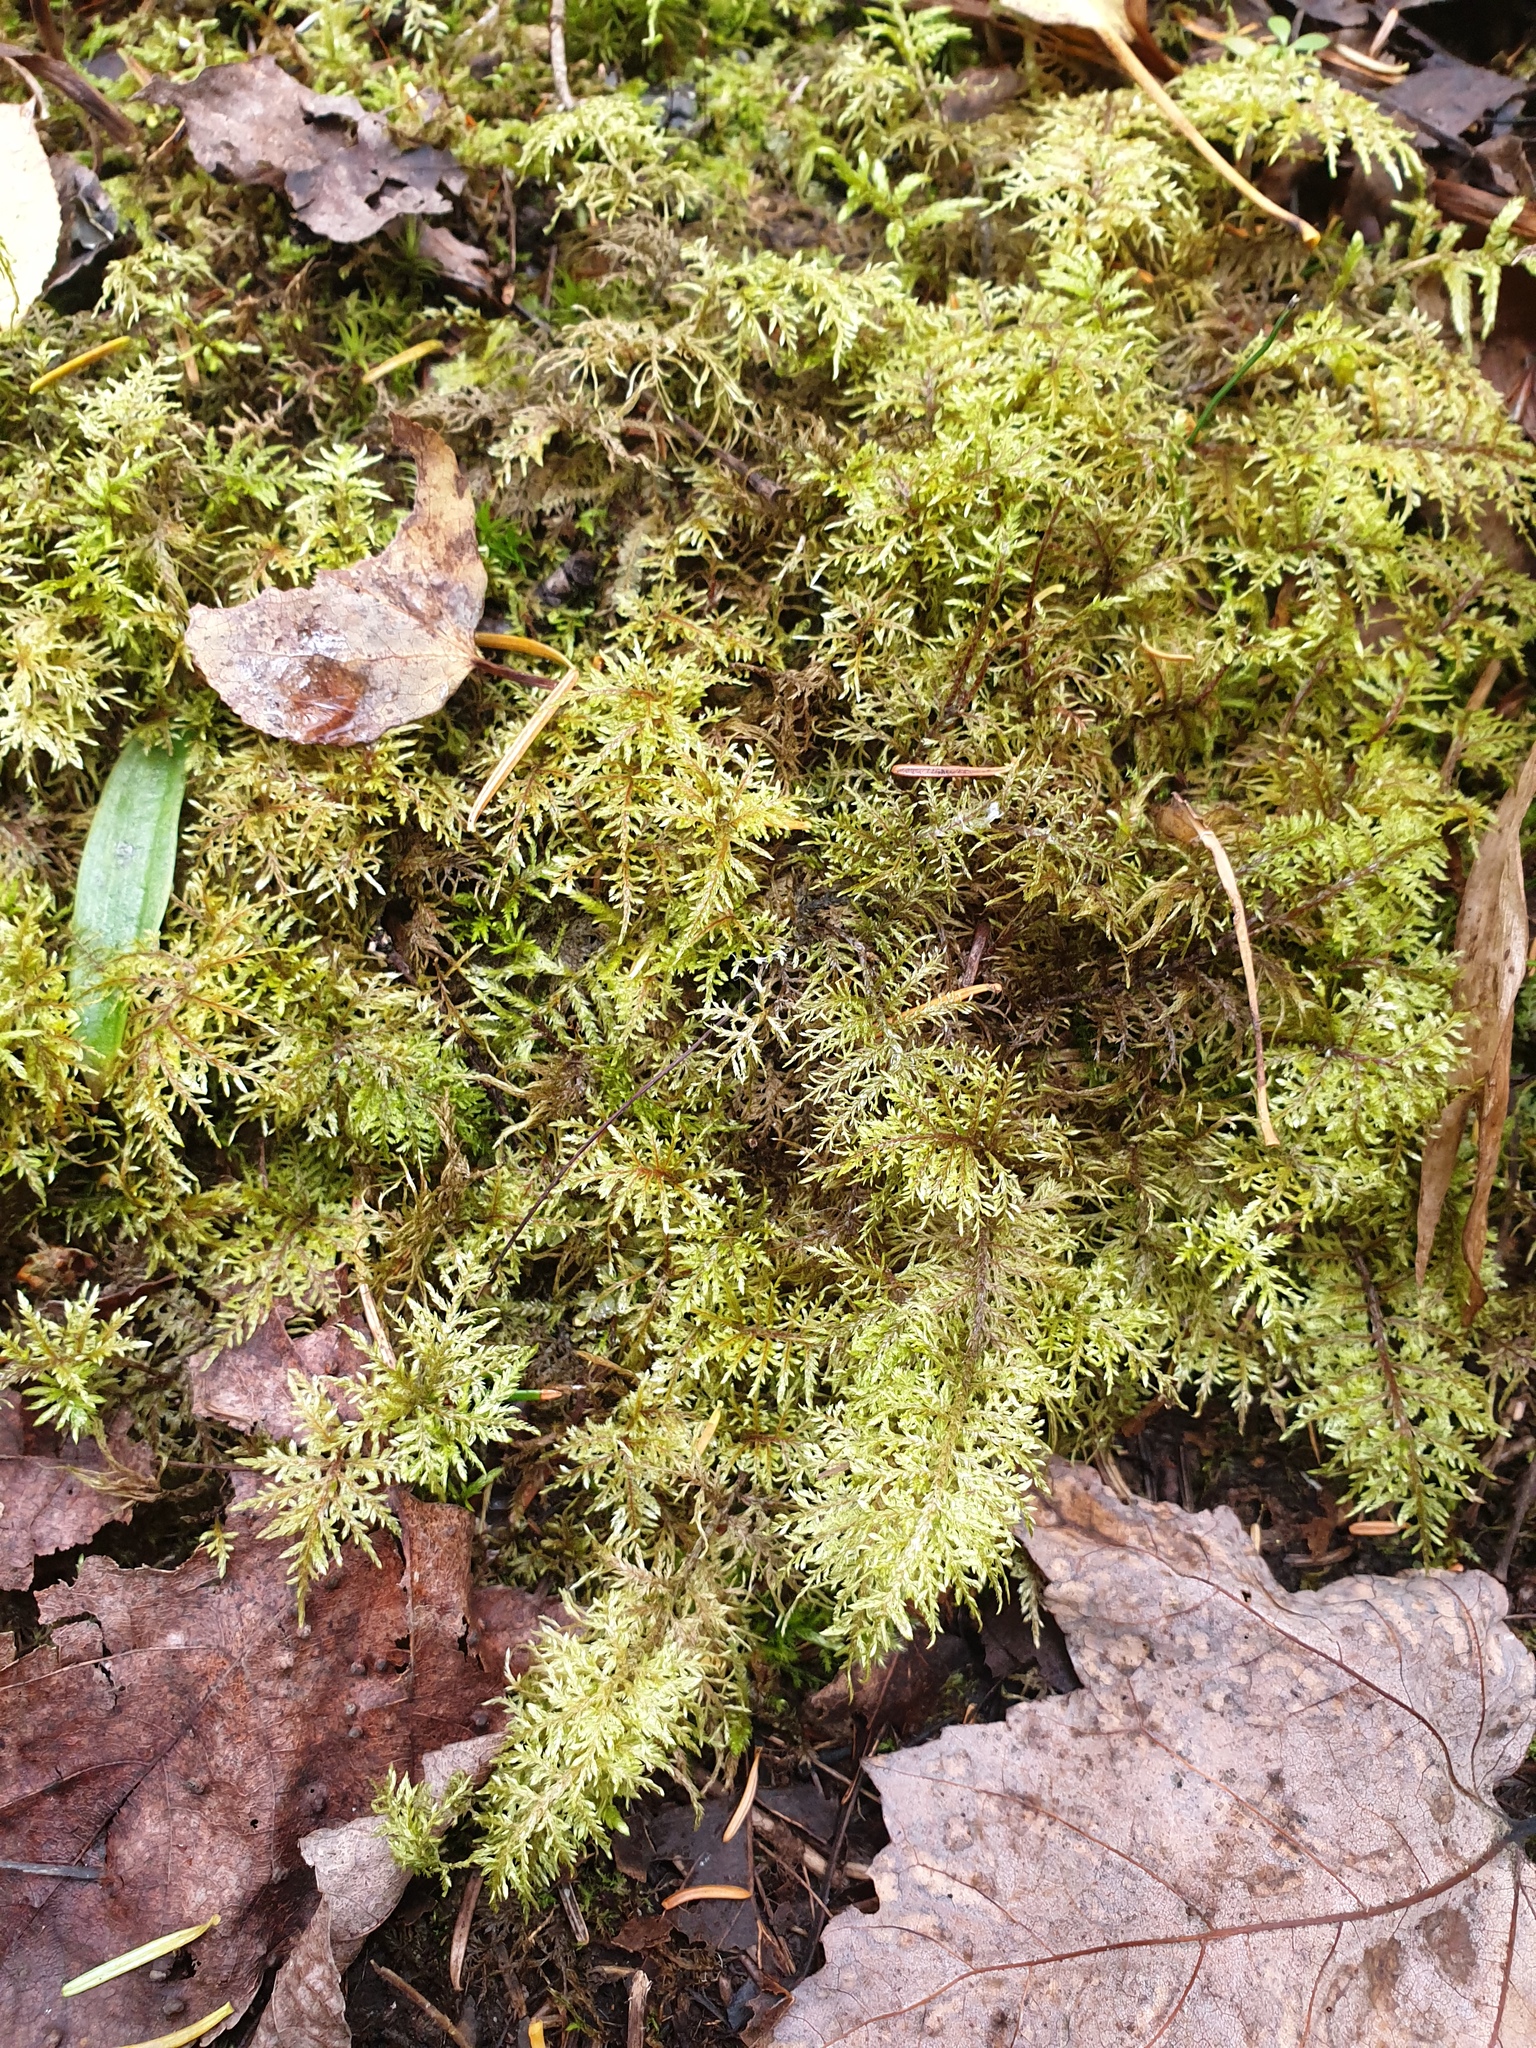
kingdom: Plantae
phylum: Bryophyta
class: Bryopsida
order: Hypnales
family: Hylocomiaceae
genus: Hylocomium
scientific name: Hylocomium splendens
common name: Stairstep moss
